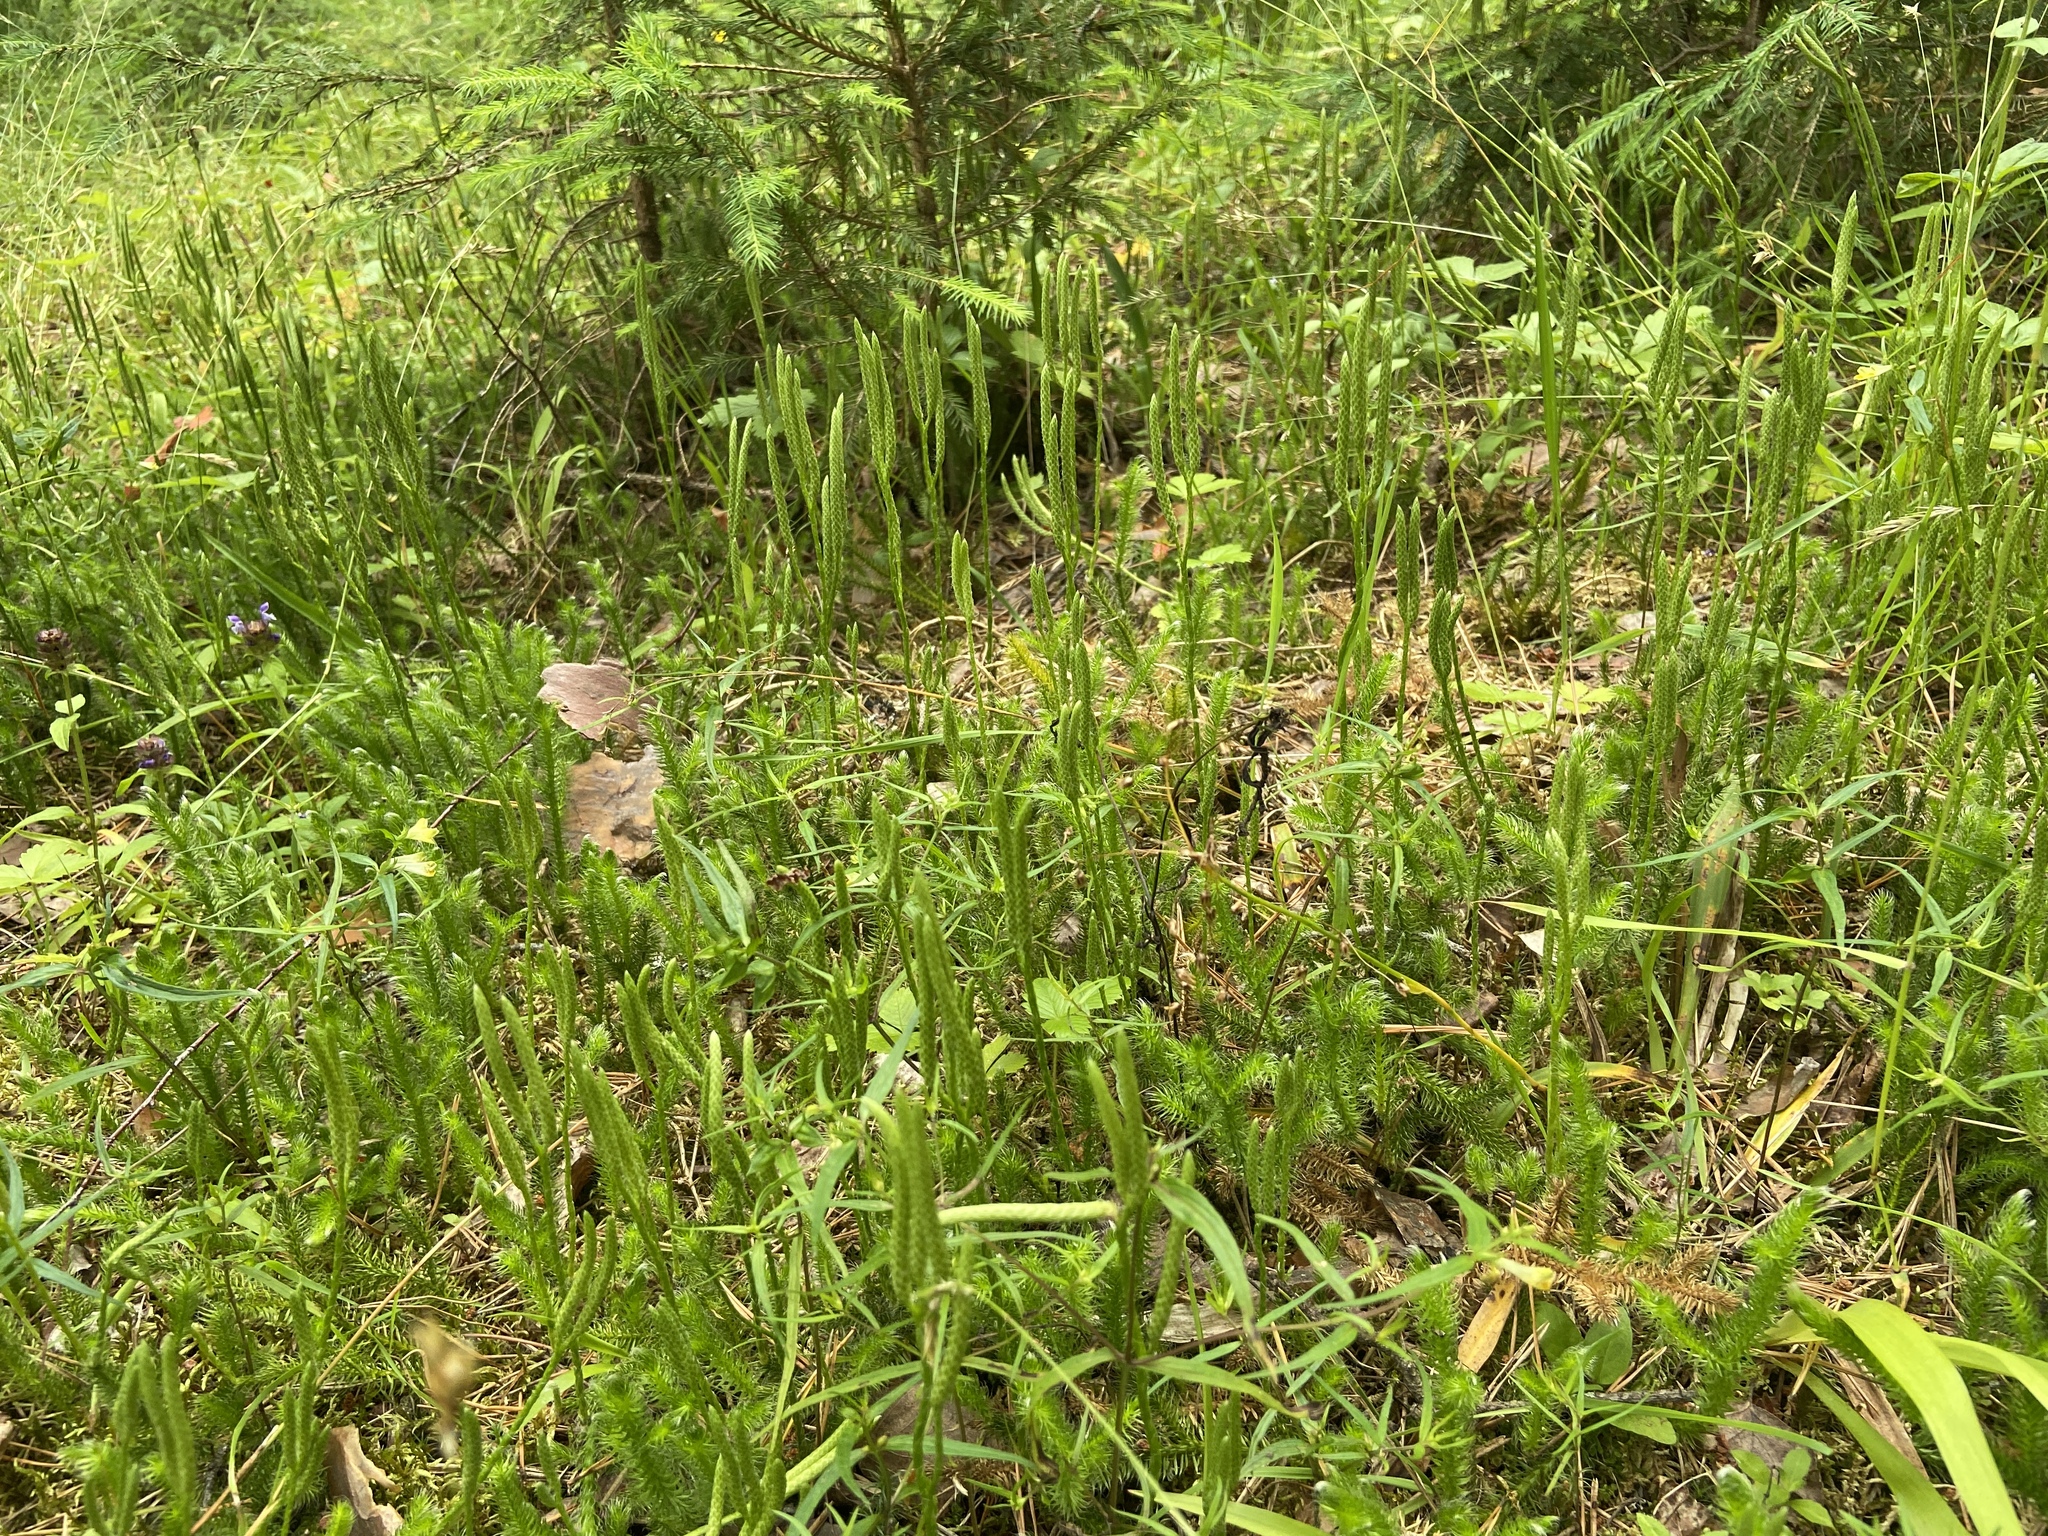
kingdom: Plantae
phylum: Tracheophyta
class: Lycopodiopsida
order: Lycopodiales
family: Lycopodiaceae
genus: Lycopodium
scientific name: Lycopodium clavatum
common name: Stag's-horn clubmoss
